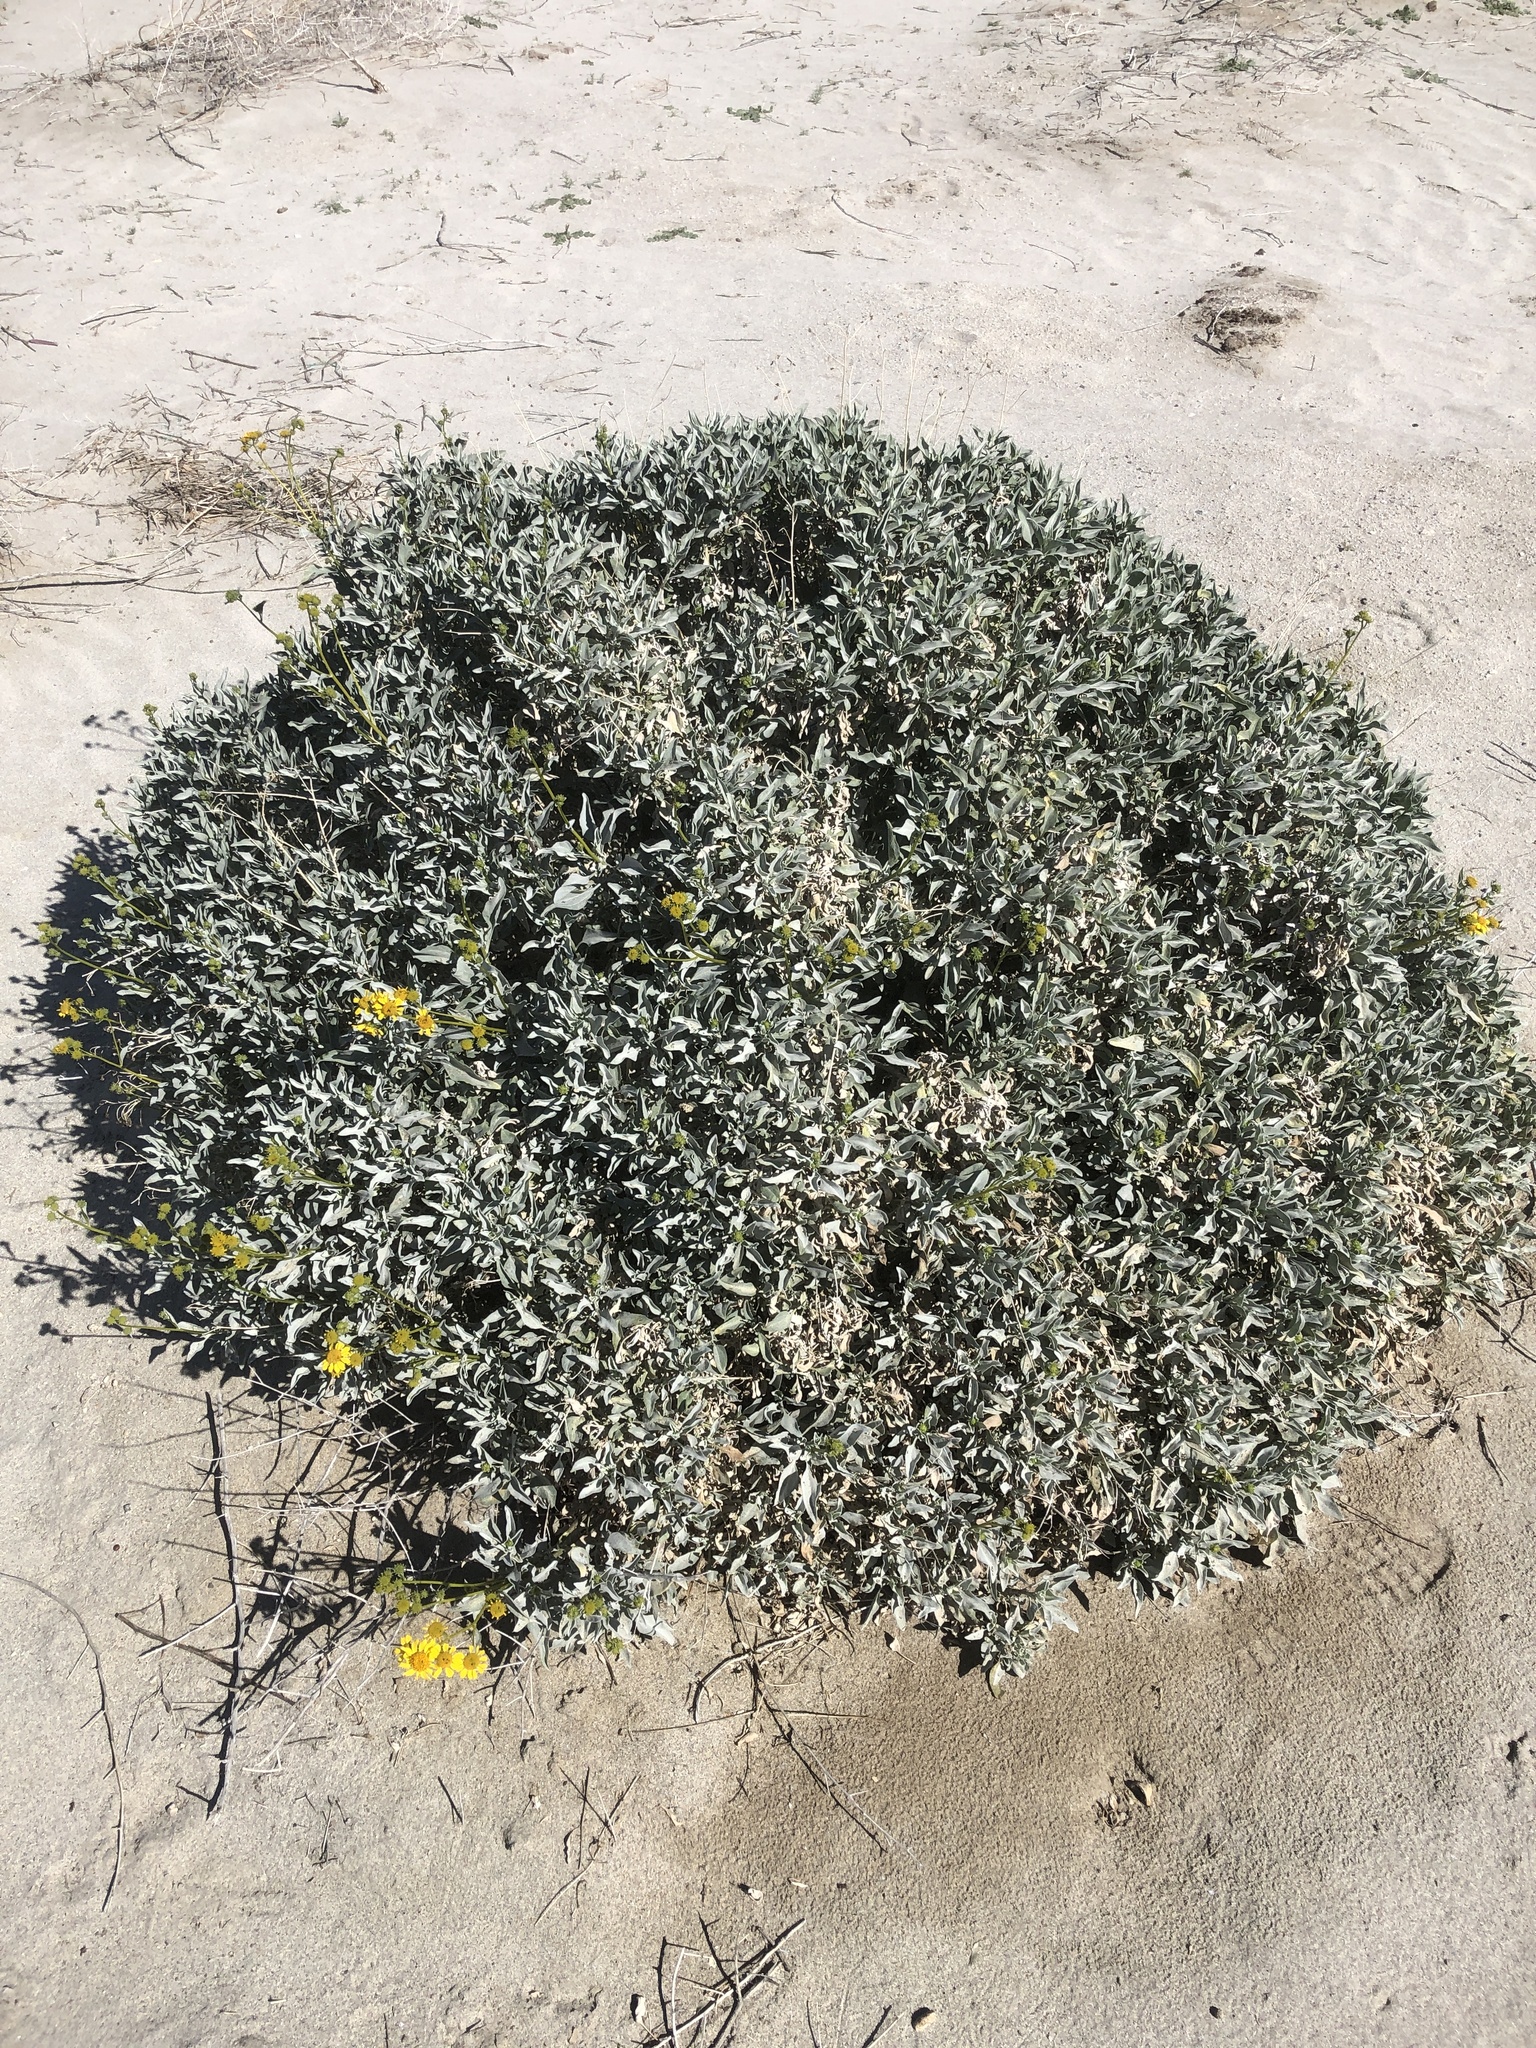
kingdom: Plantae
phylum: Tracheophyta
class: Magnoliopsida
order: Asterales
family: Asteraceae
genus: Encelia
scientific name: Encelia farinosa
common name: Brittlebush
